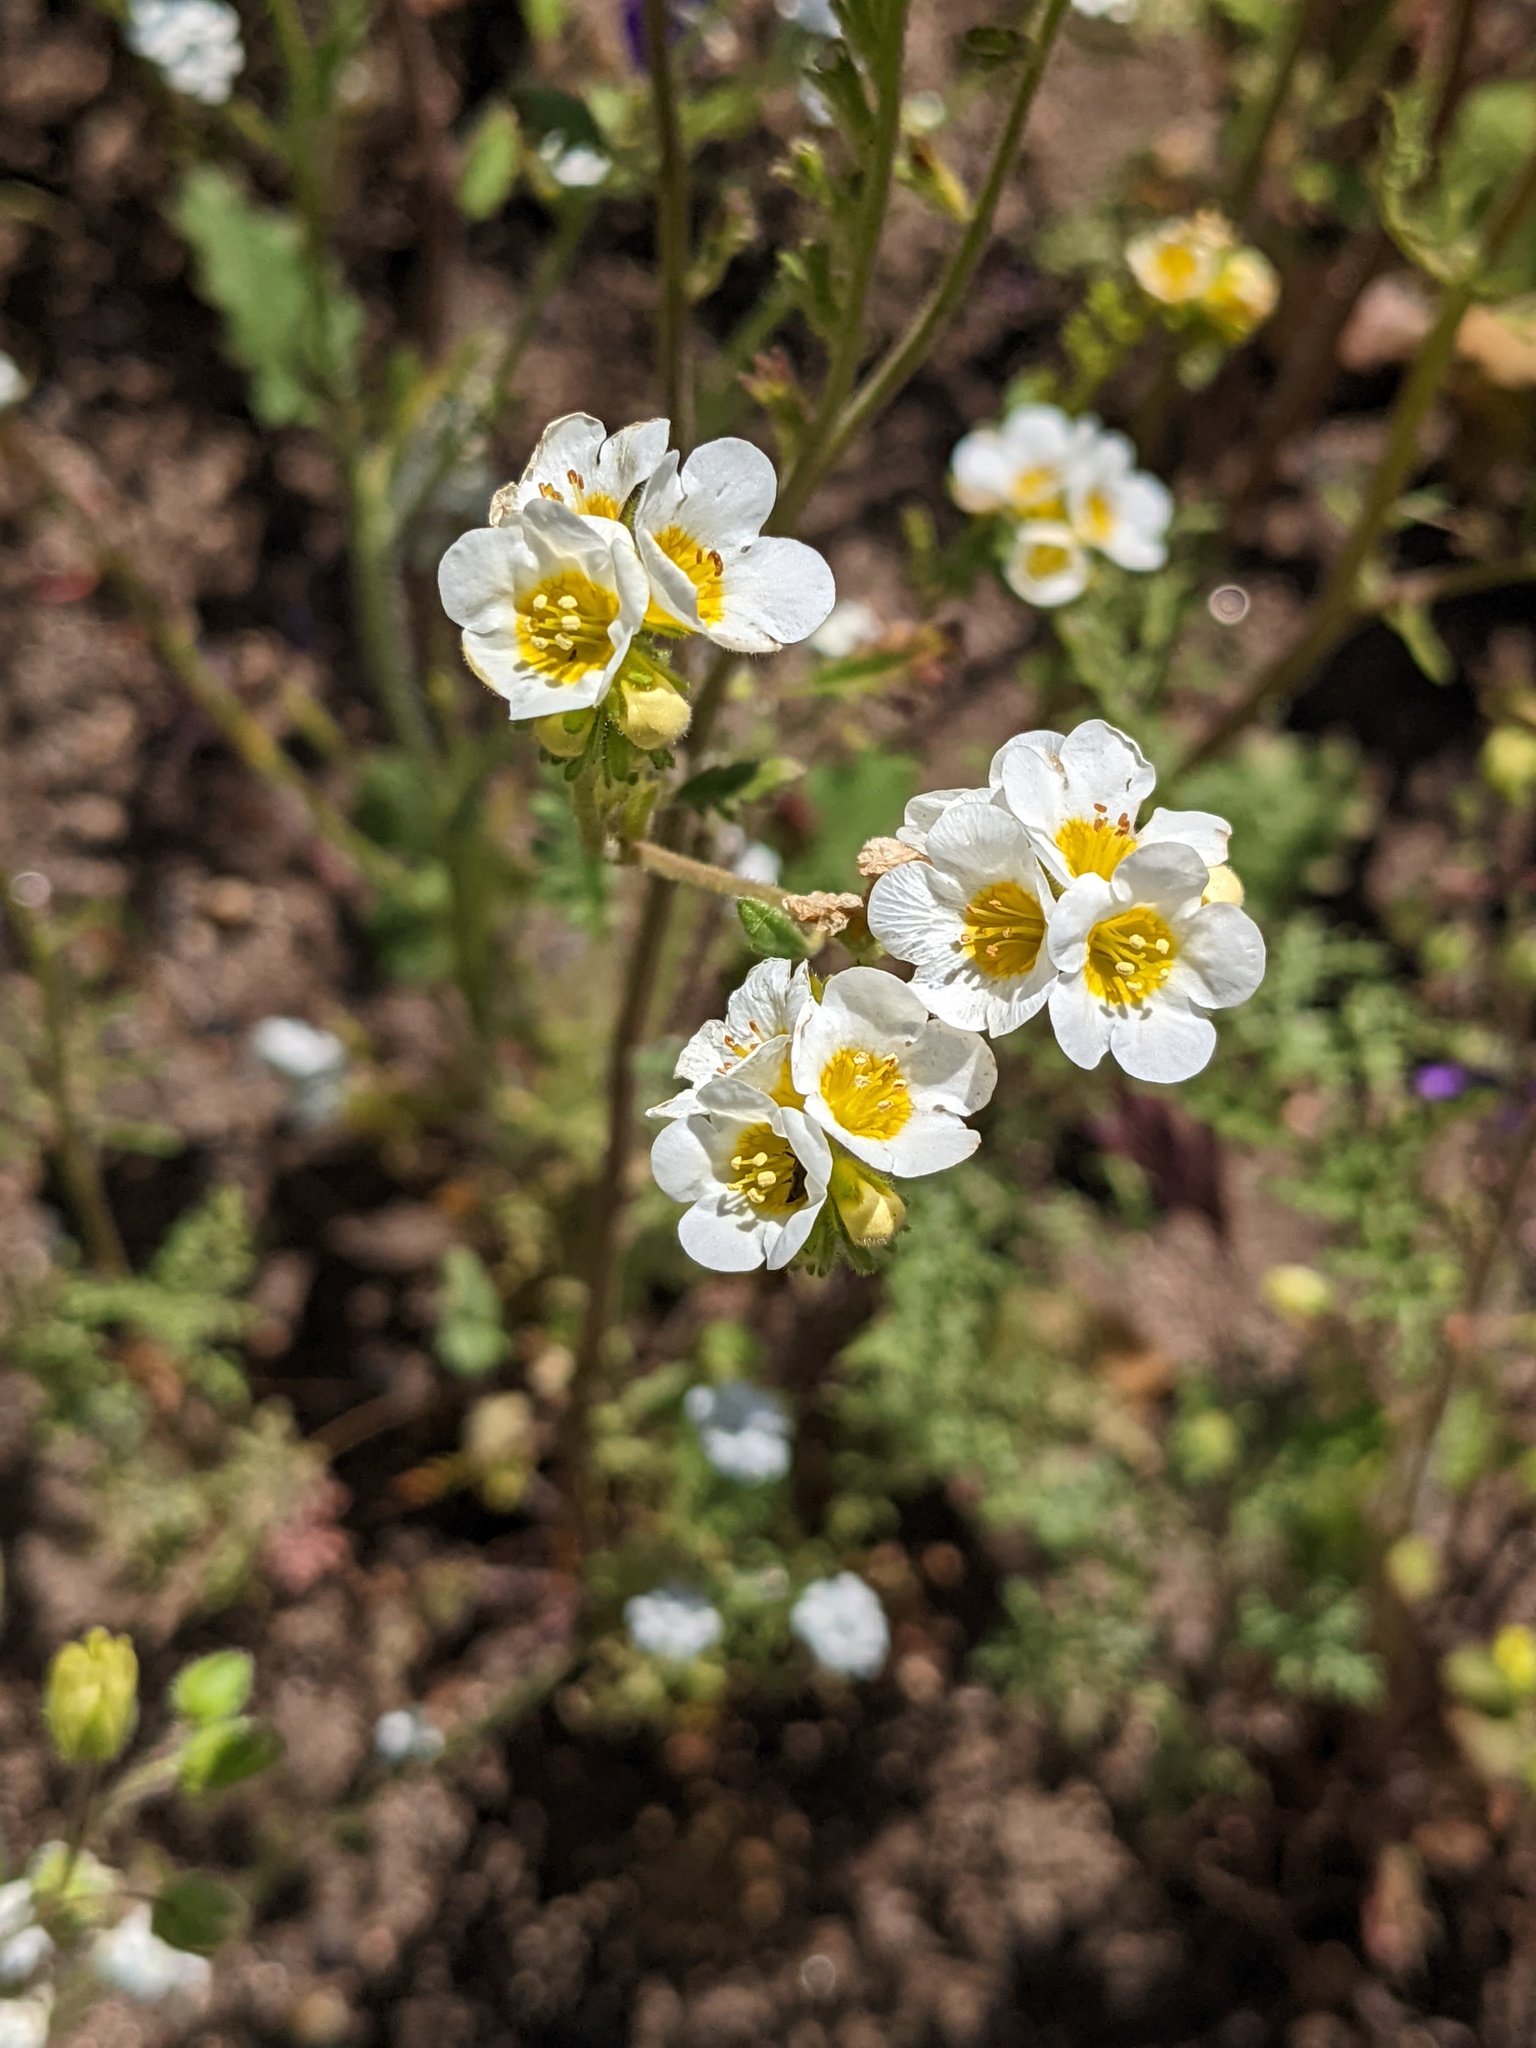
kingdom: Plantae
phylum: Tracheophyta
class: Magnoliopsida
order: Boraginales
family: Hydrophyllaceae
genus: Phacelia
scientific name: Phacelia brachyloba
